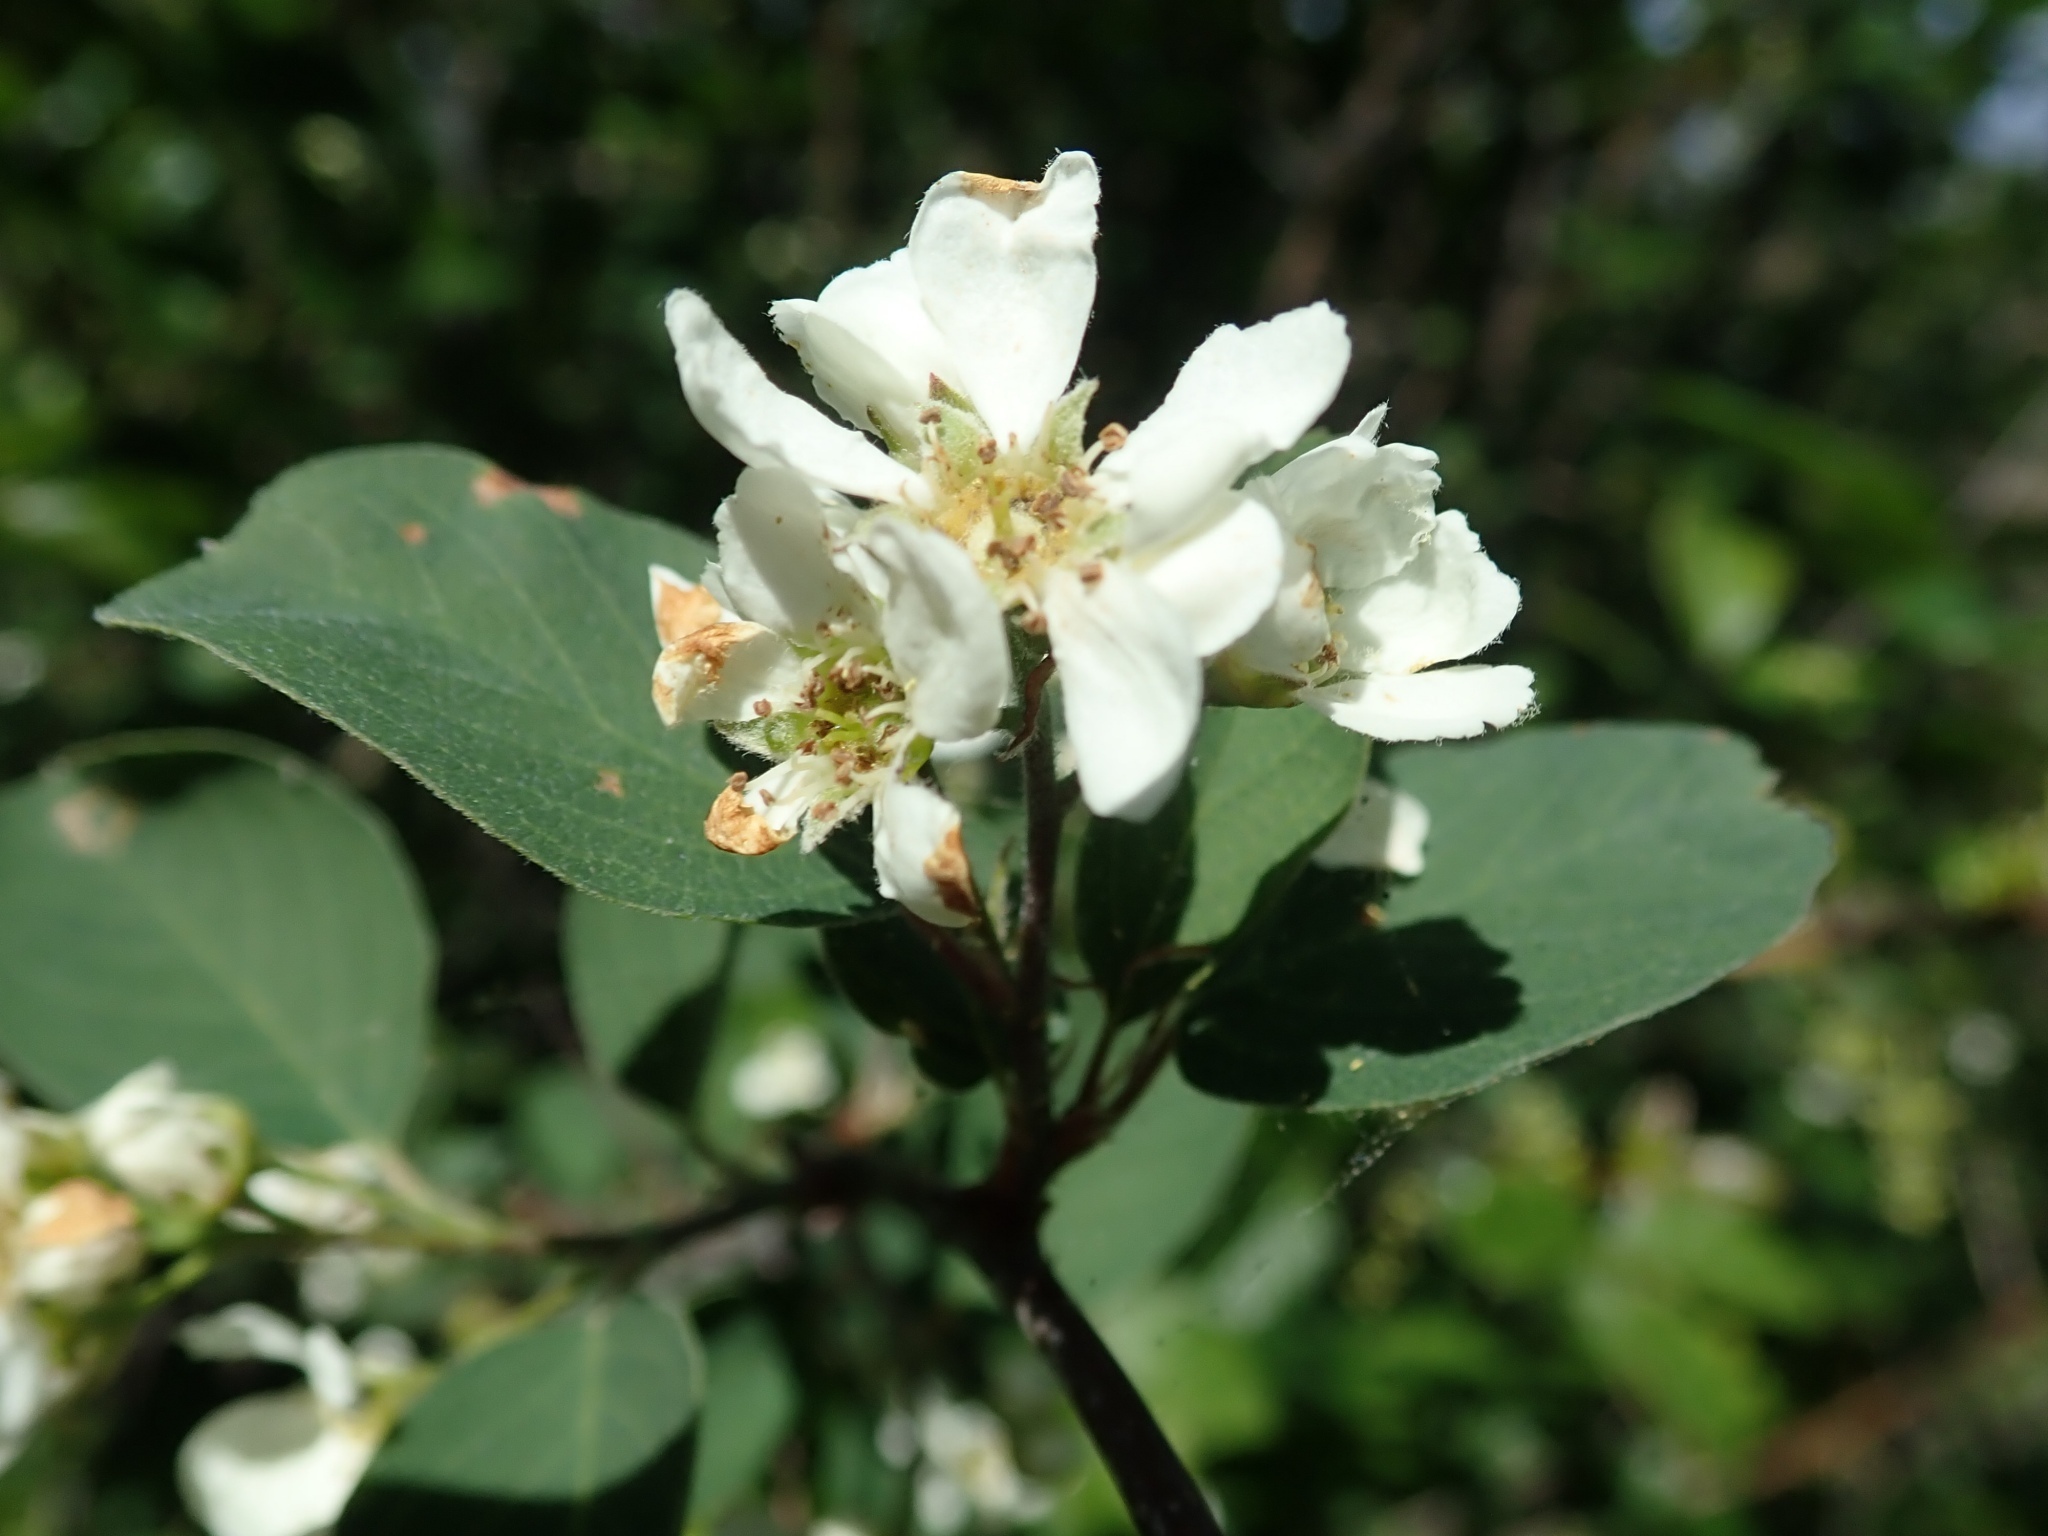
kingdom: Plantae
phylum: Tracheophyta
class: Magnoliopsida
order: Rosales
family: Rosaceae
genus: Amelanchier
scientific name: Amelanchier utahensis
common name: Utah serviceberry
